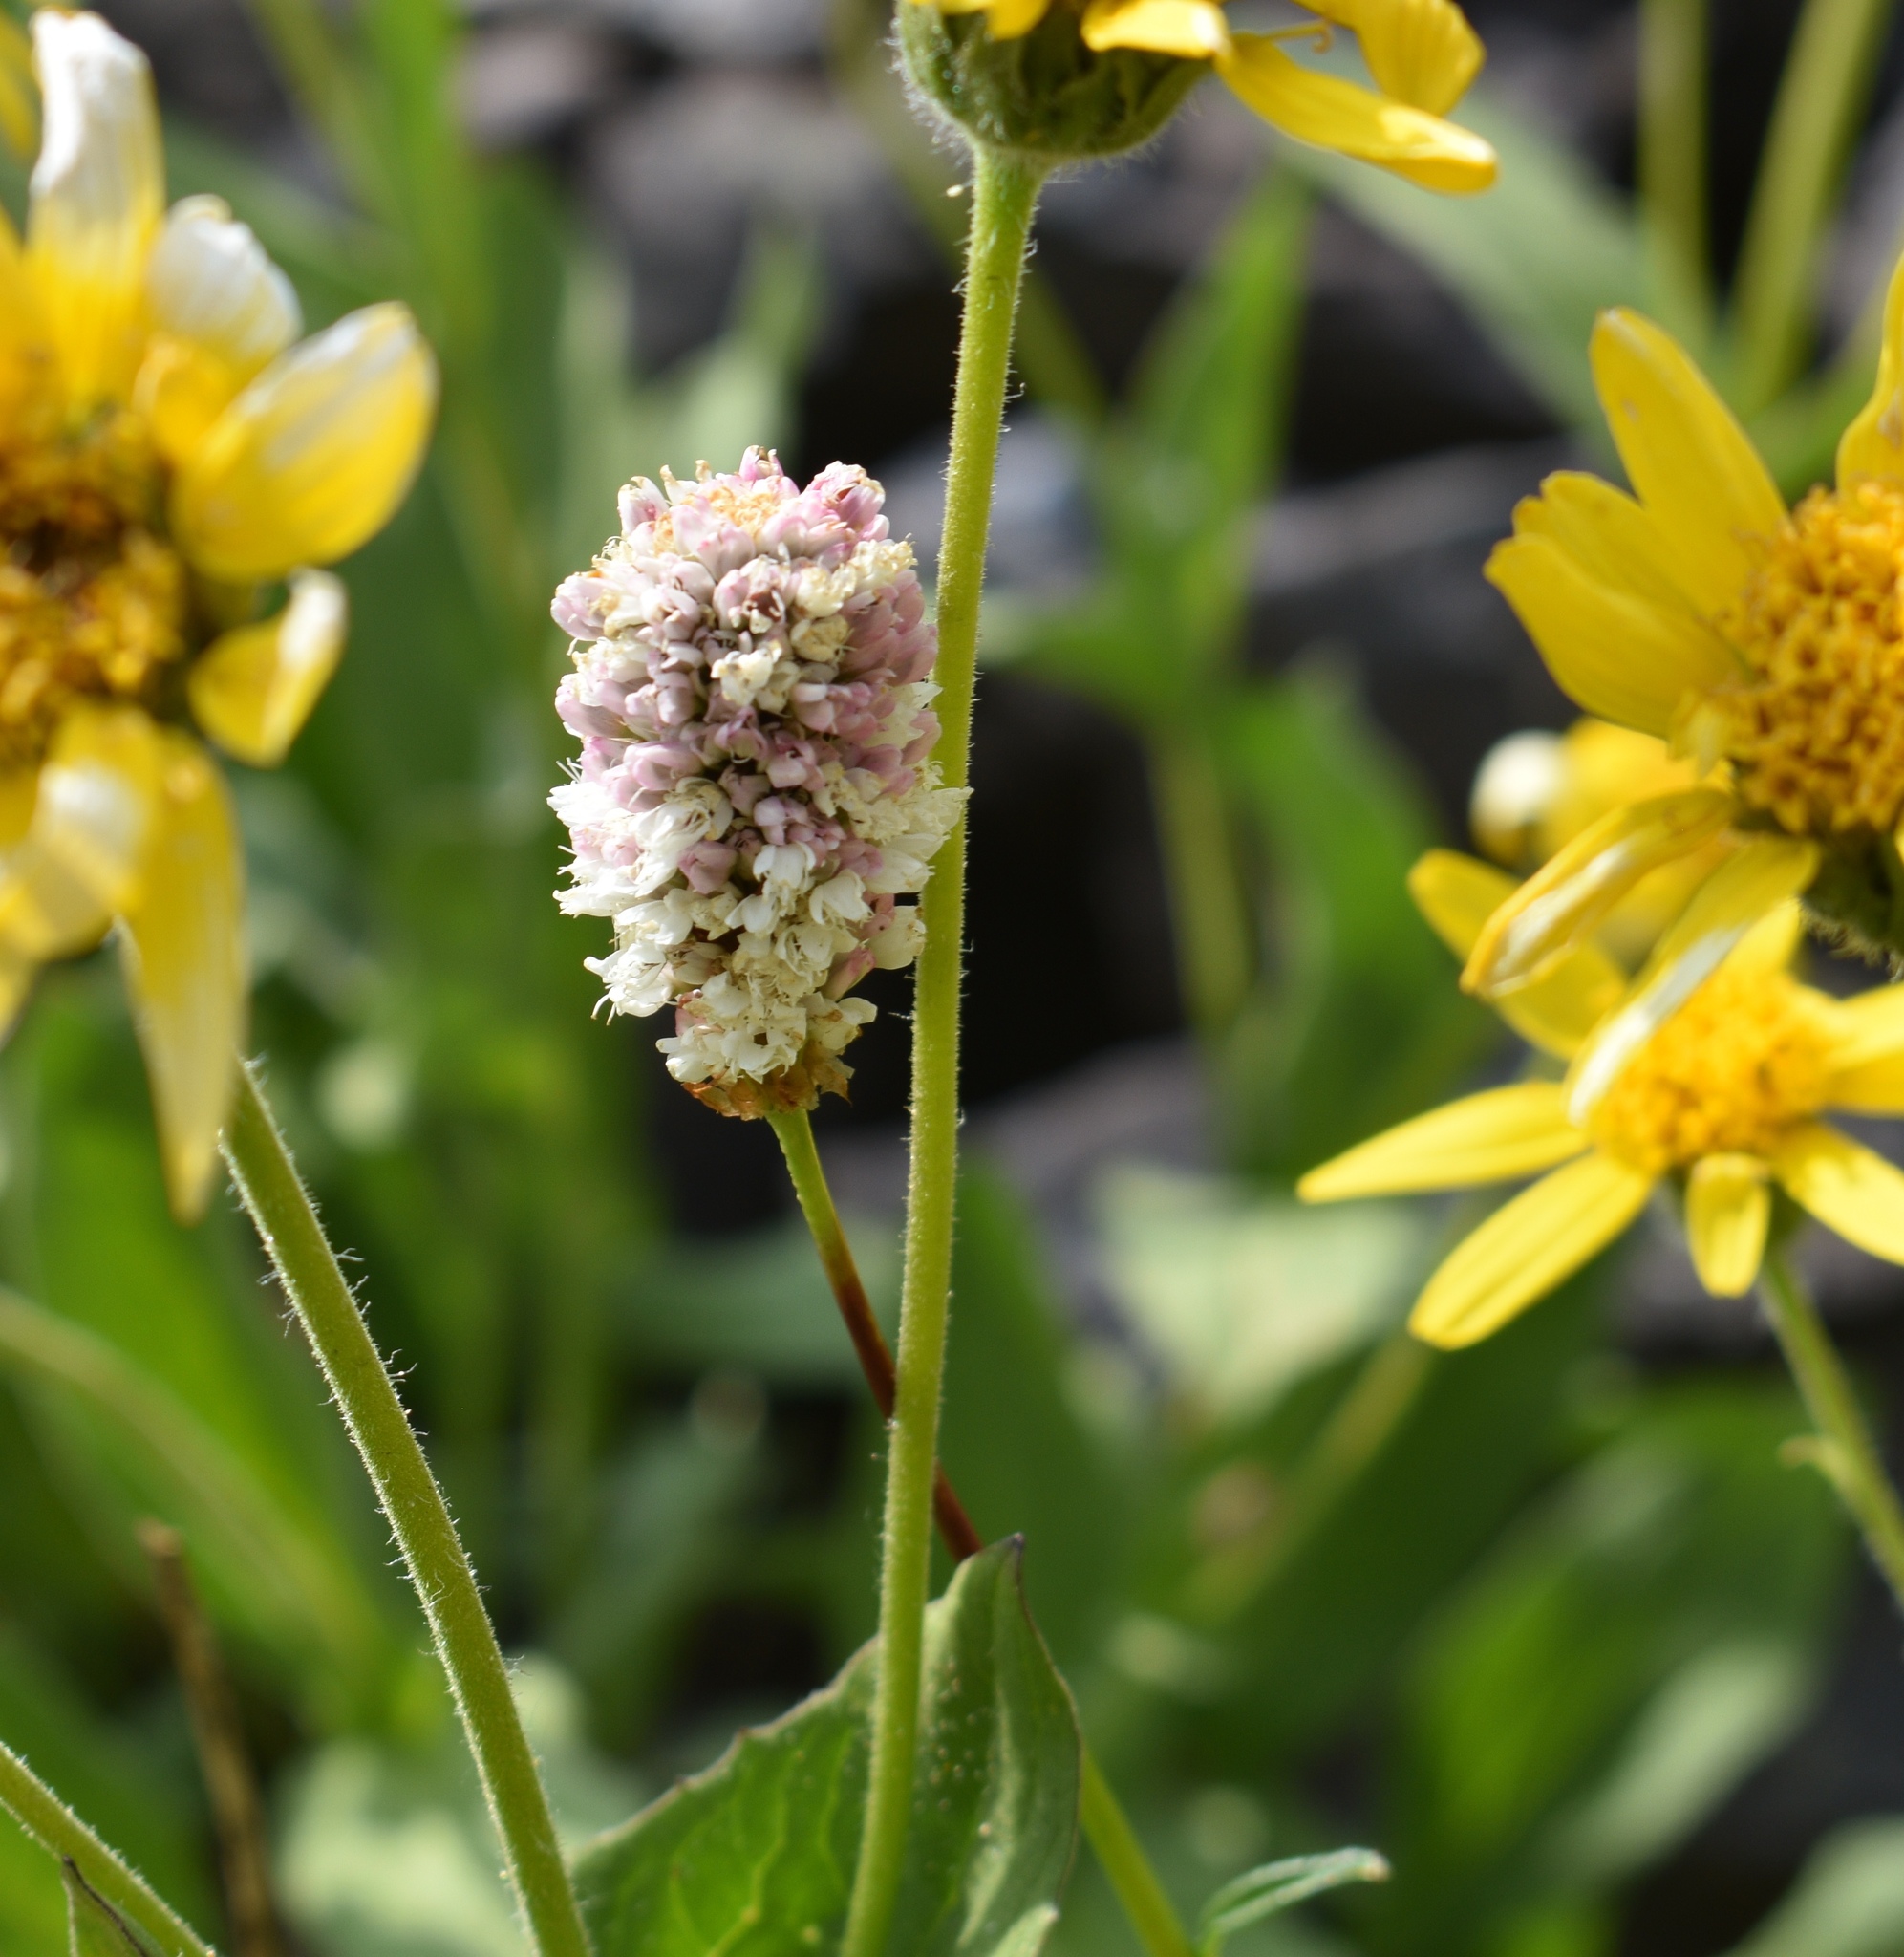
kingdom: Plantae
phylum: Tracheophyta
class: Magnoliopsida
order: Caryophyllales
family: Polygonaceae
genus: Bistorta
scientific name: Bistorta bistortoides
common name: American bistort
